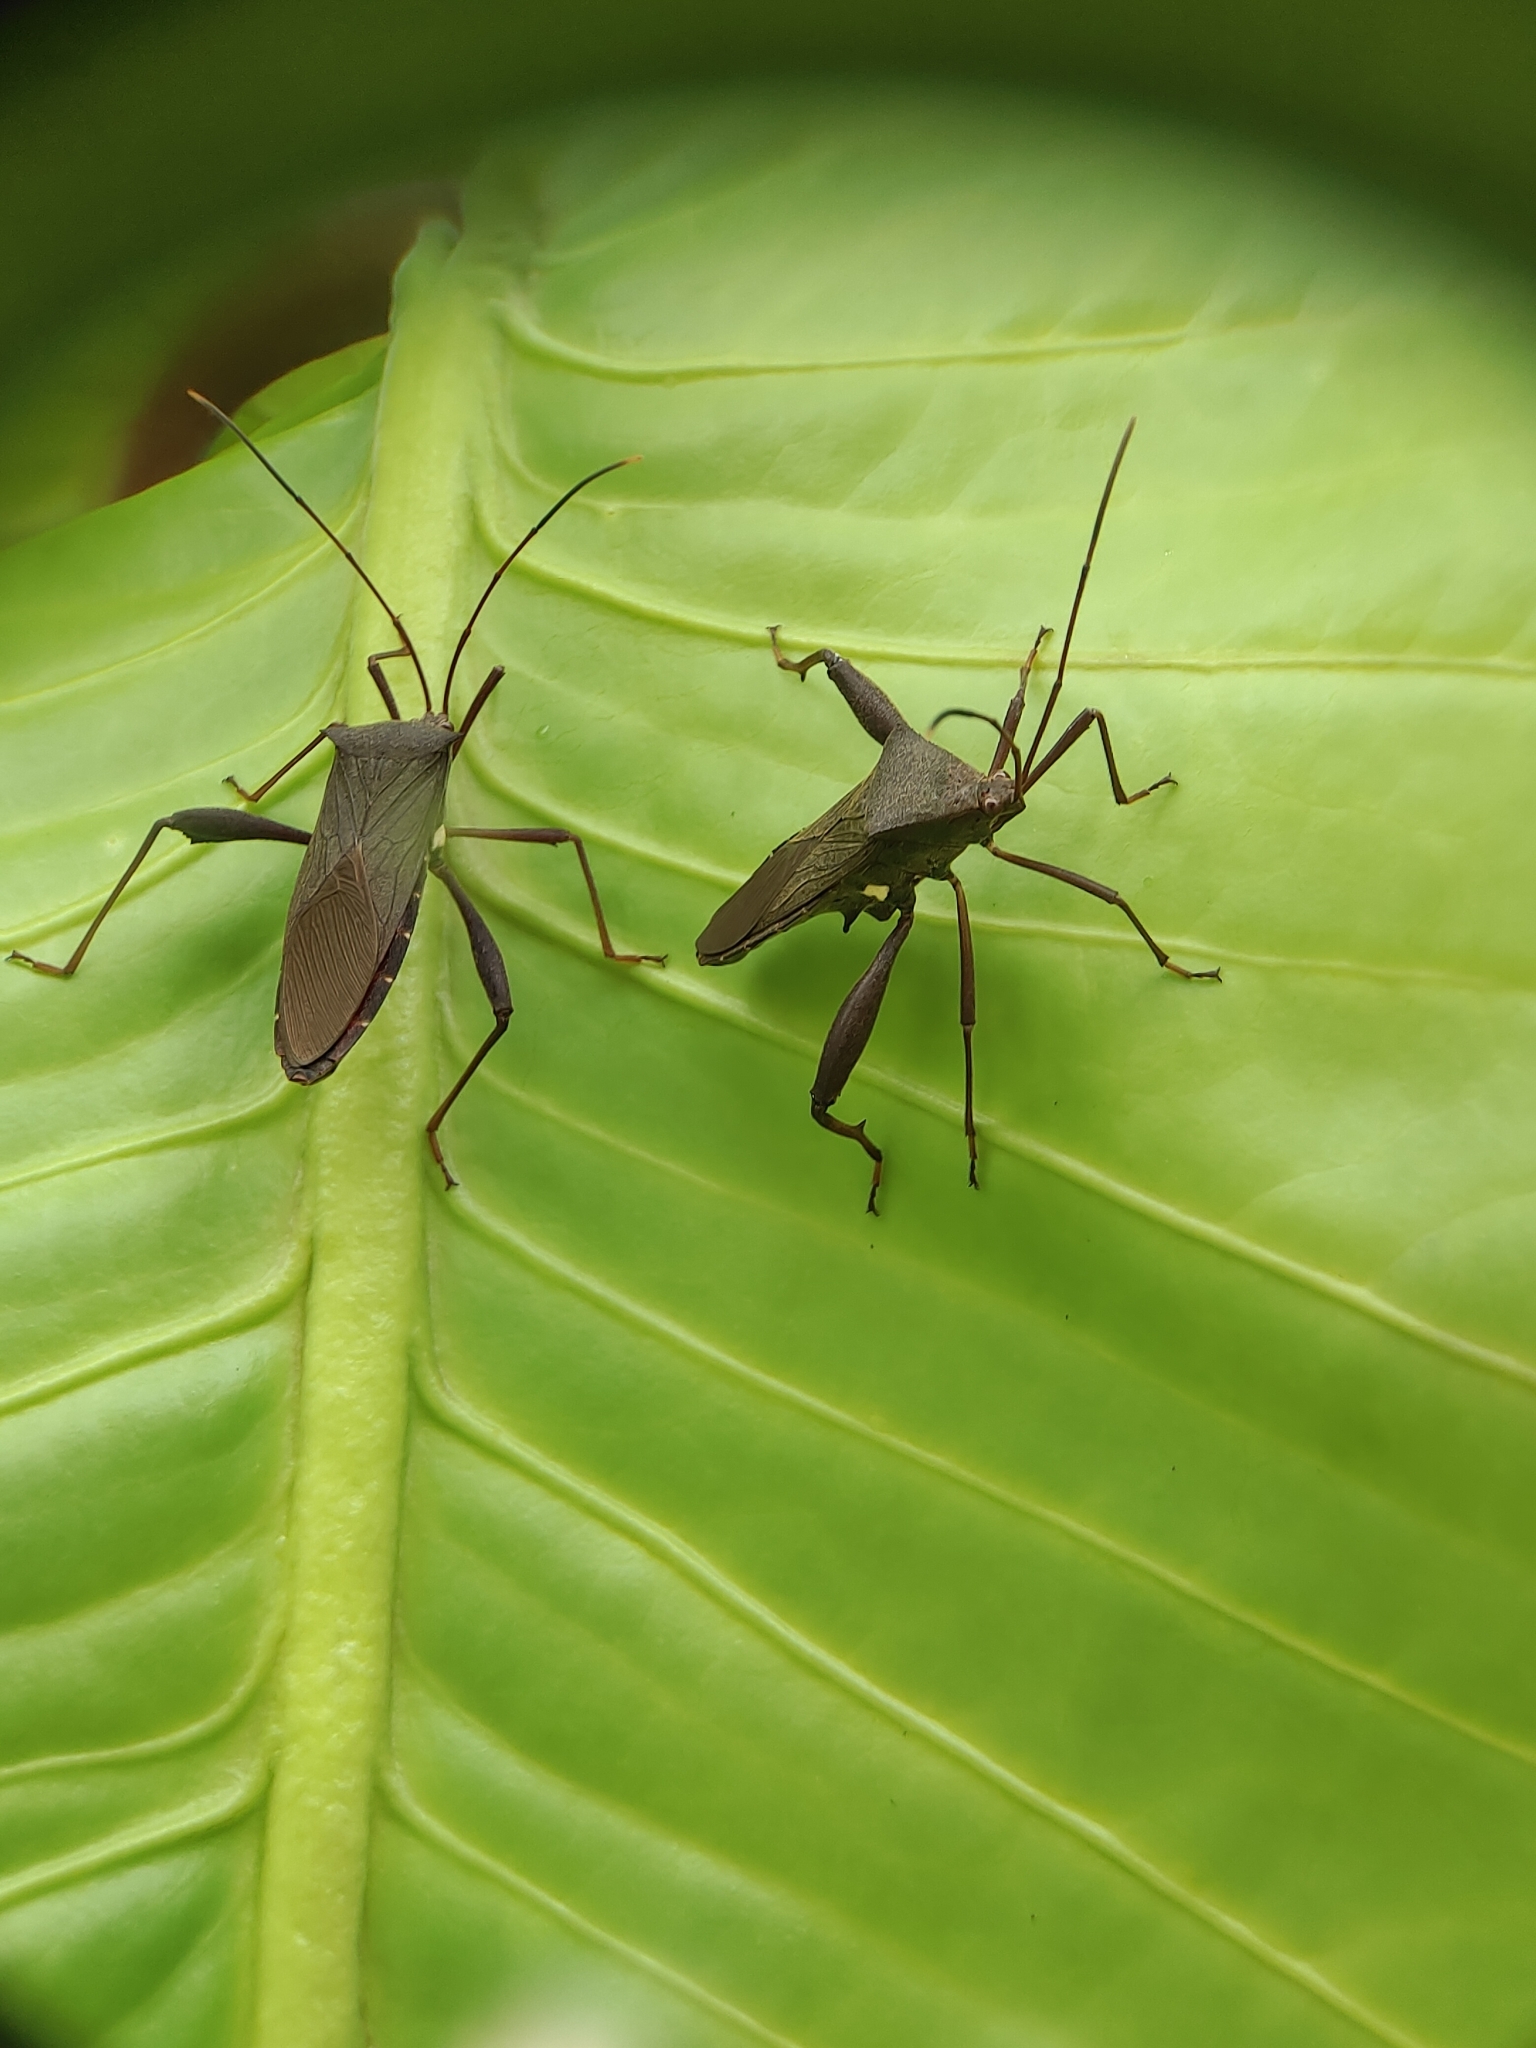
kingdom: Animalia
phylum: Arthropoda
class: Insecta
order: Hemiptera
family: Coreidae
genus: Mictis
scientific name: Mictis longicornis
